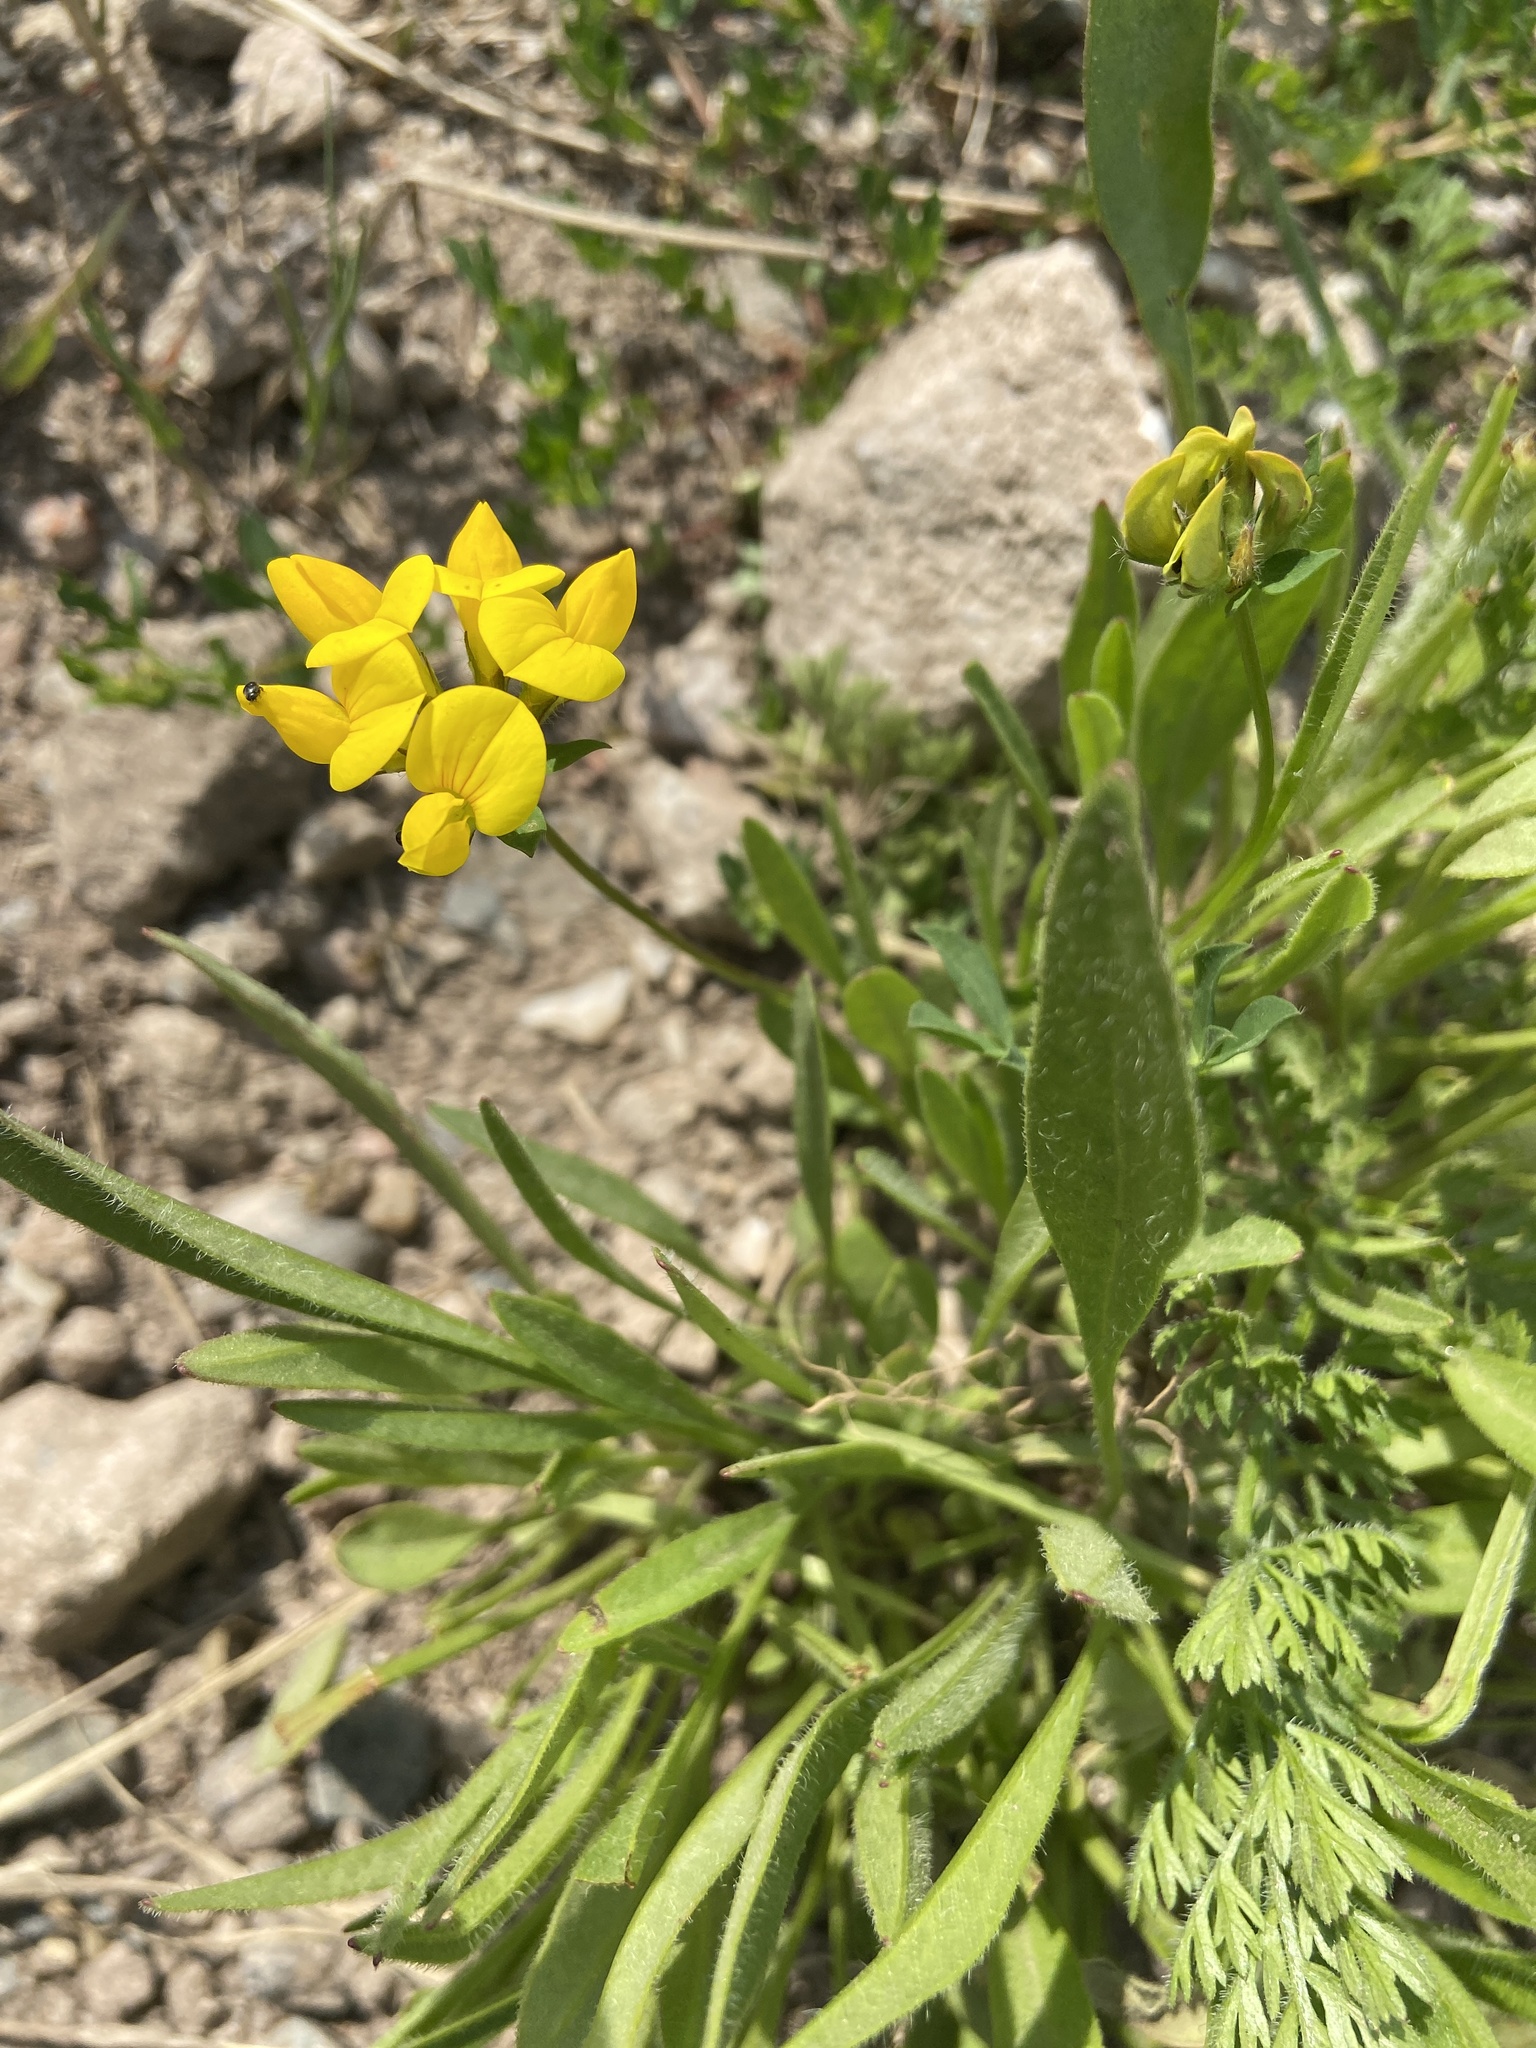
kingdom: Plantae
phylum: Tracheophyta
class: Magnoliopsida
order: Fabales
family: Fabaceae
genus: Lotus
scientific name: Lotus corniculatus
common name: Common bird's-foot-trefoil
